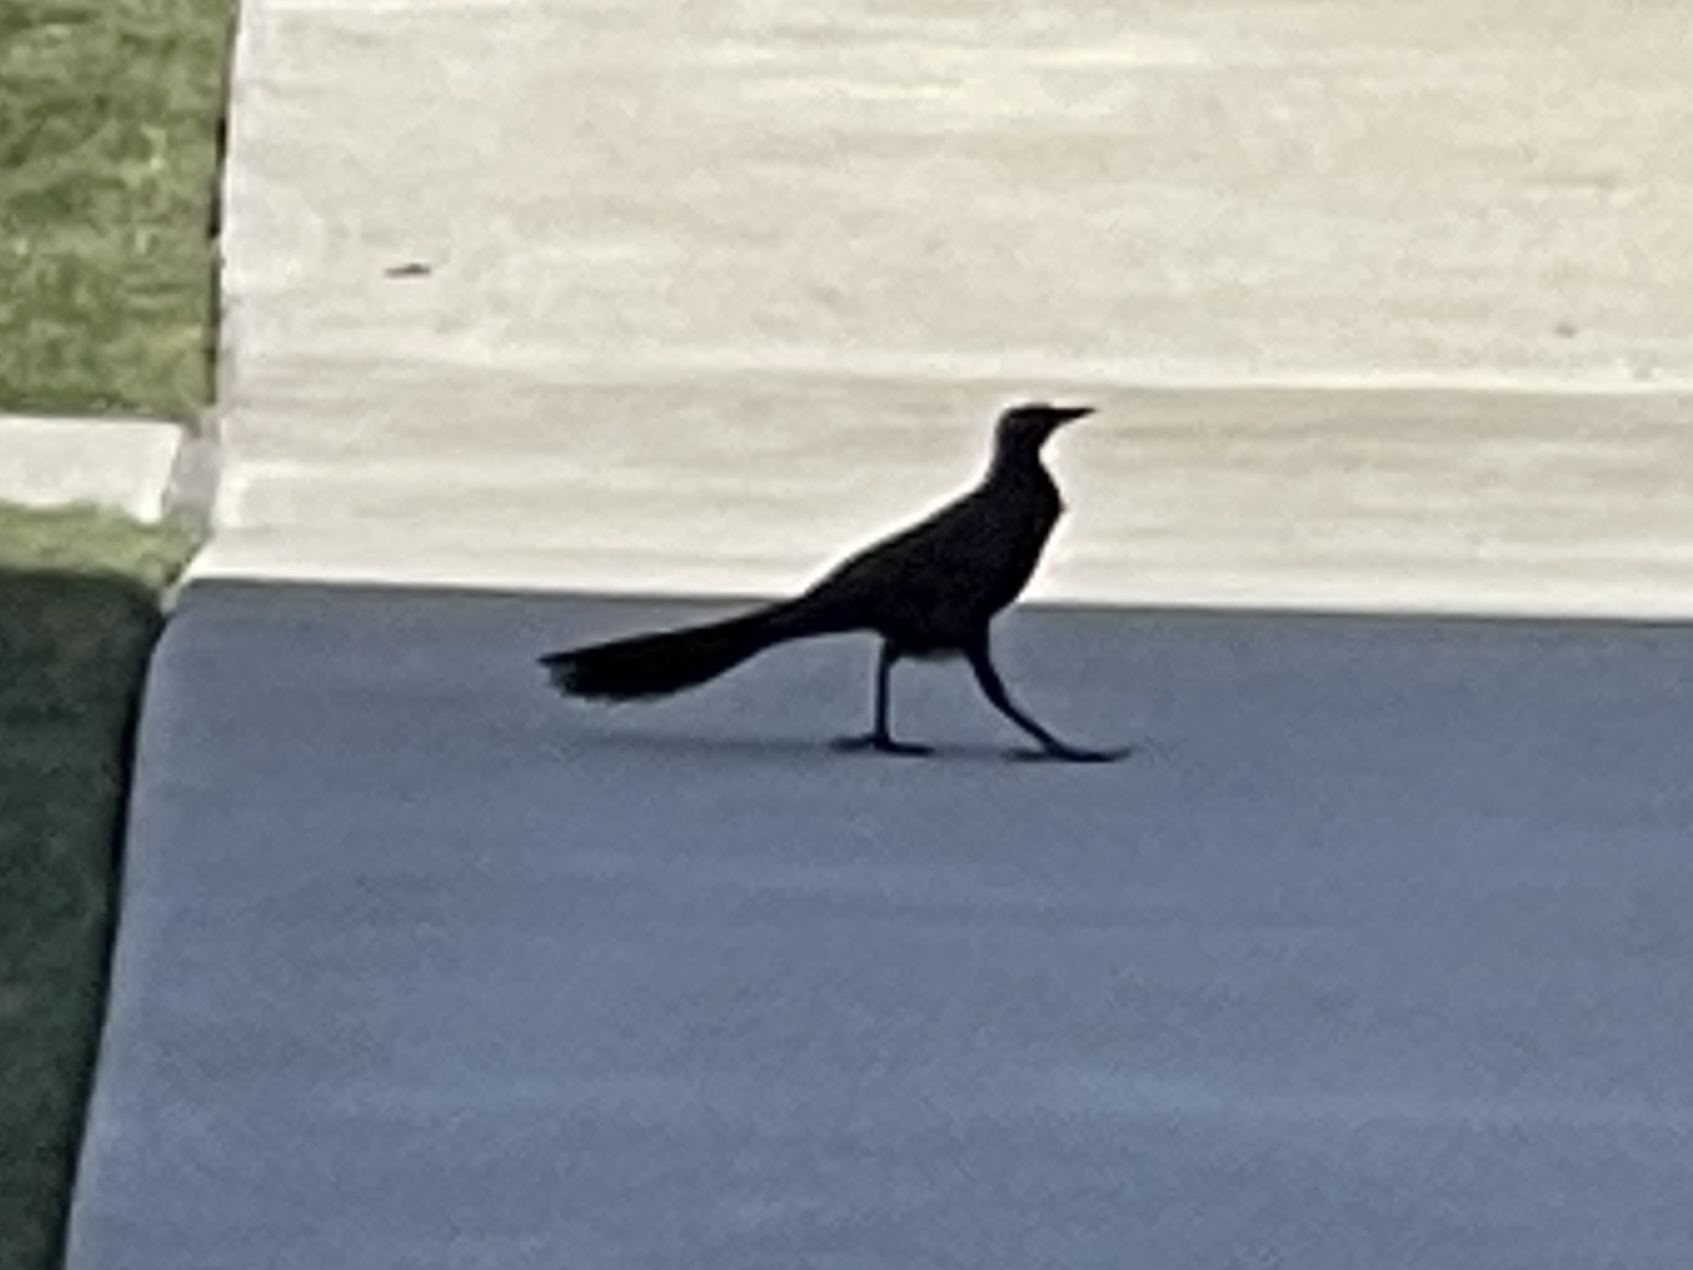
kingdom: Animalia
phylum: Chordata
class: Aves
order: Passeriformes
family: Icteridae
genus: Quiscalus
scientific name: Quiscalus mexicanus
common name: Great-tailed grackle
